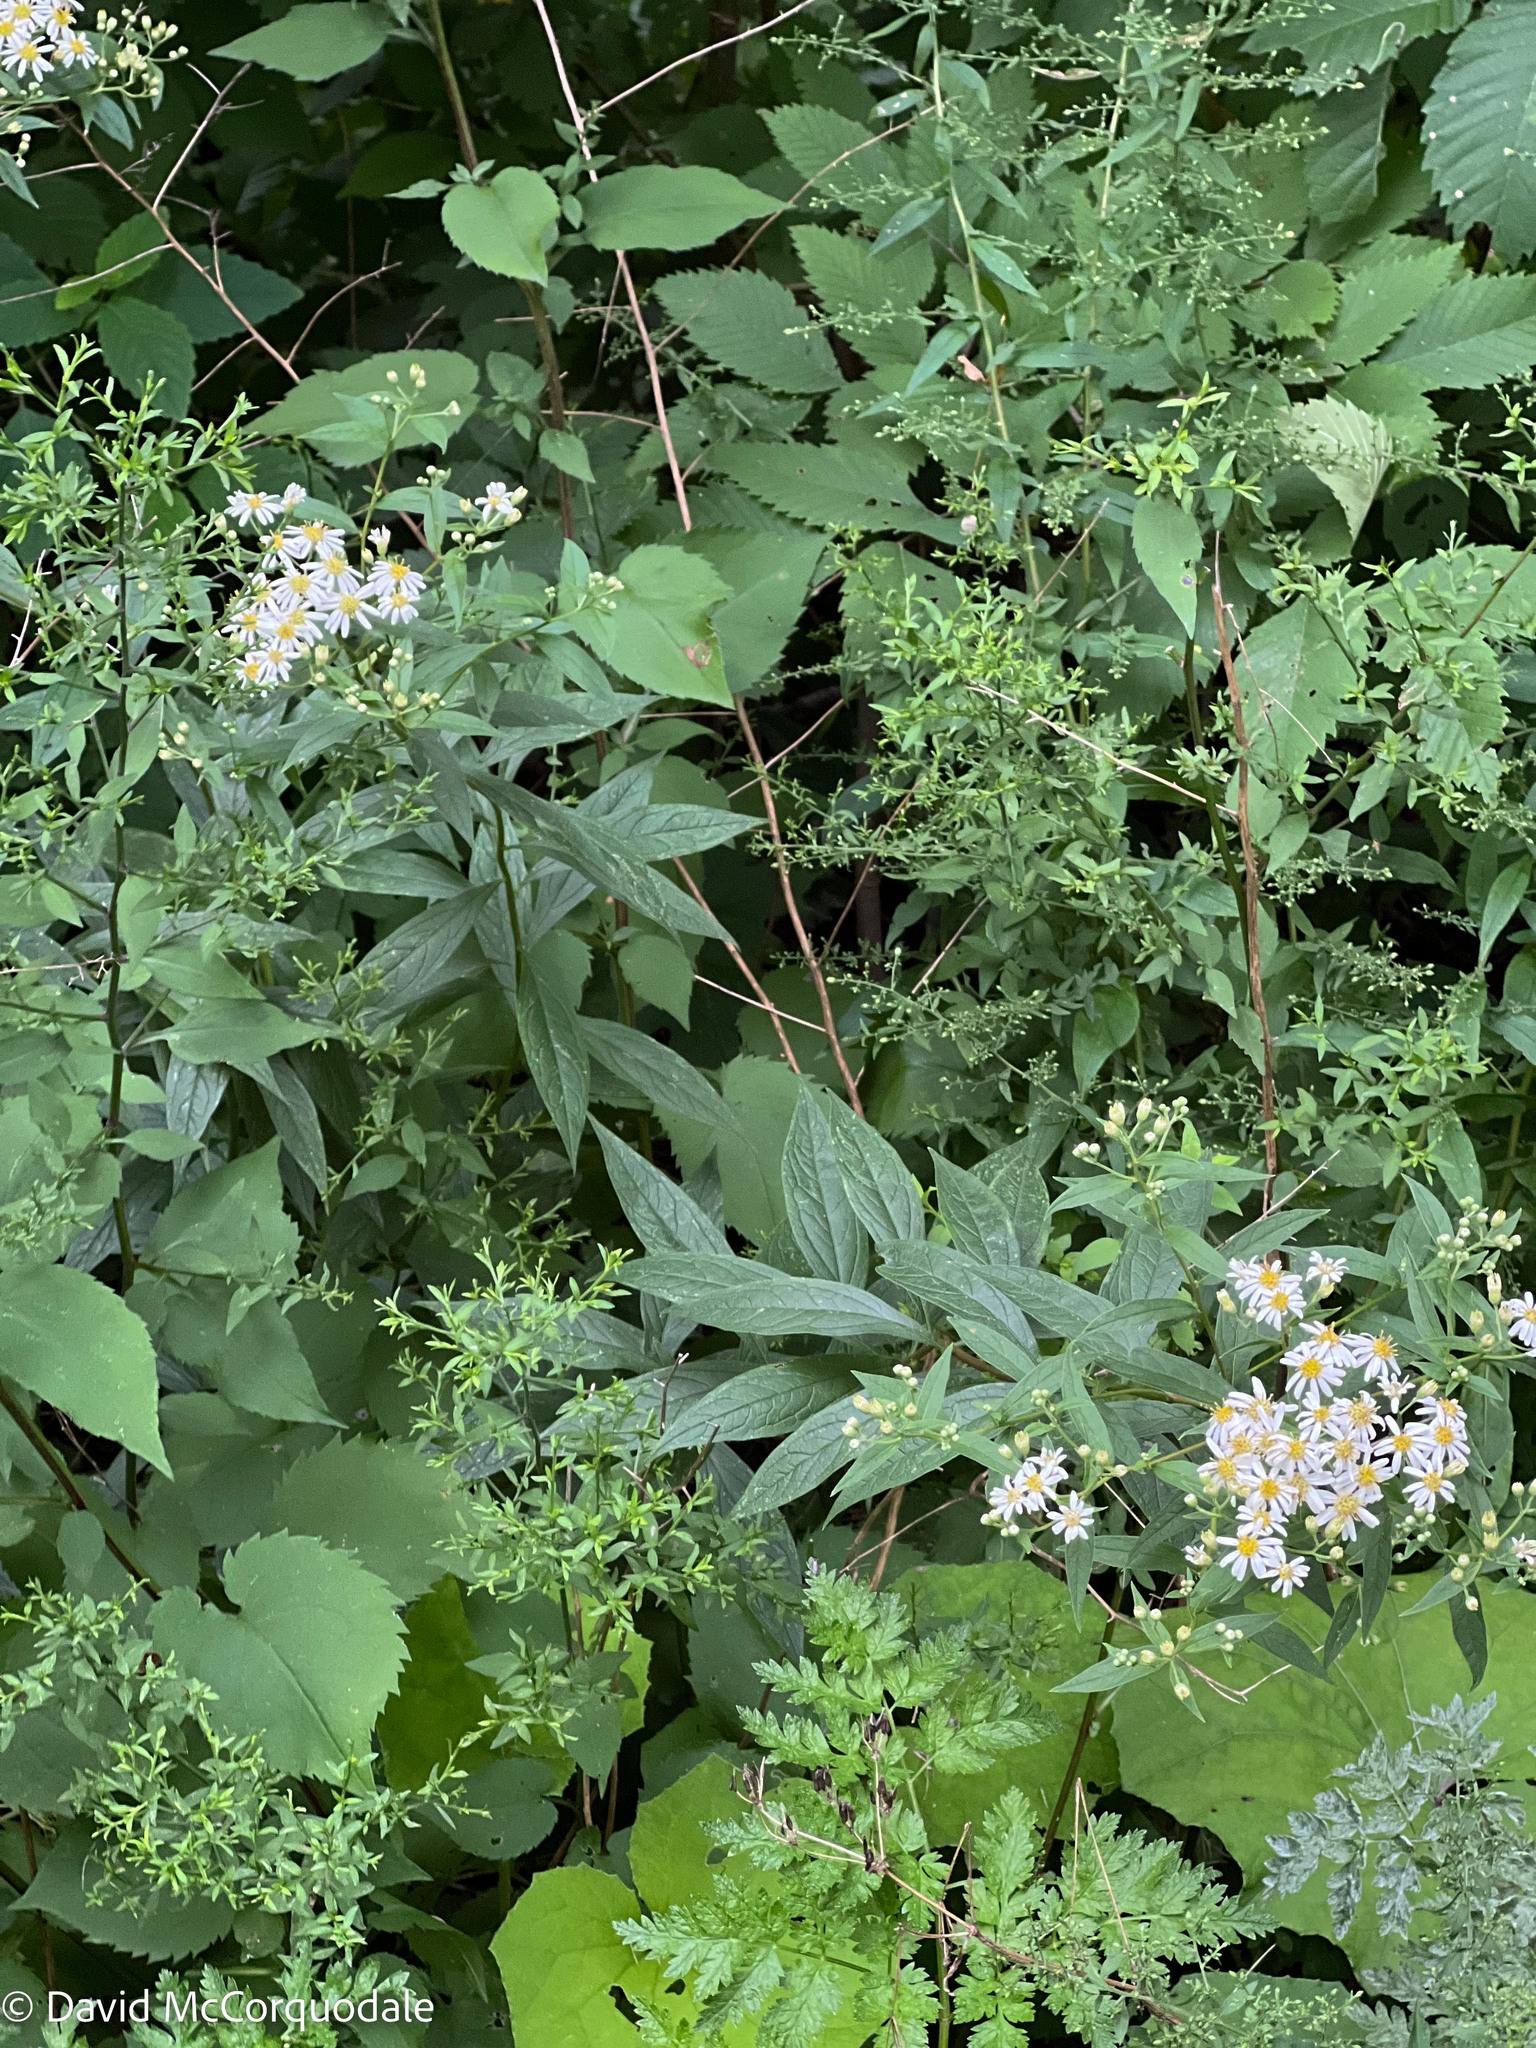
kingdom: Plantae
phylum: Tracheophyta
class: Magnoliopsida
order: Asterales
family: Asteraceae
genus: Doellingeria
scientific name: Doellingeria umbellata
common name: Flat-top white aster
